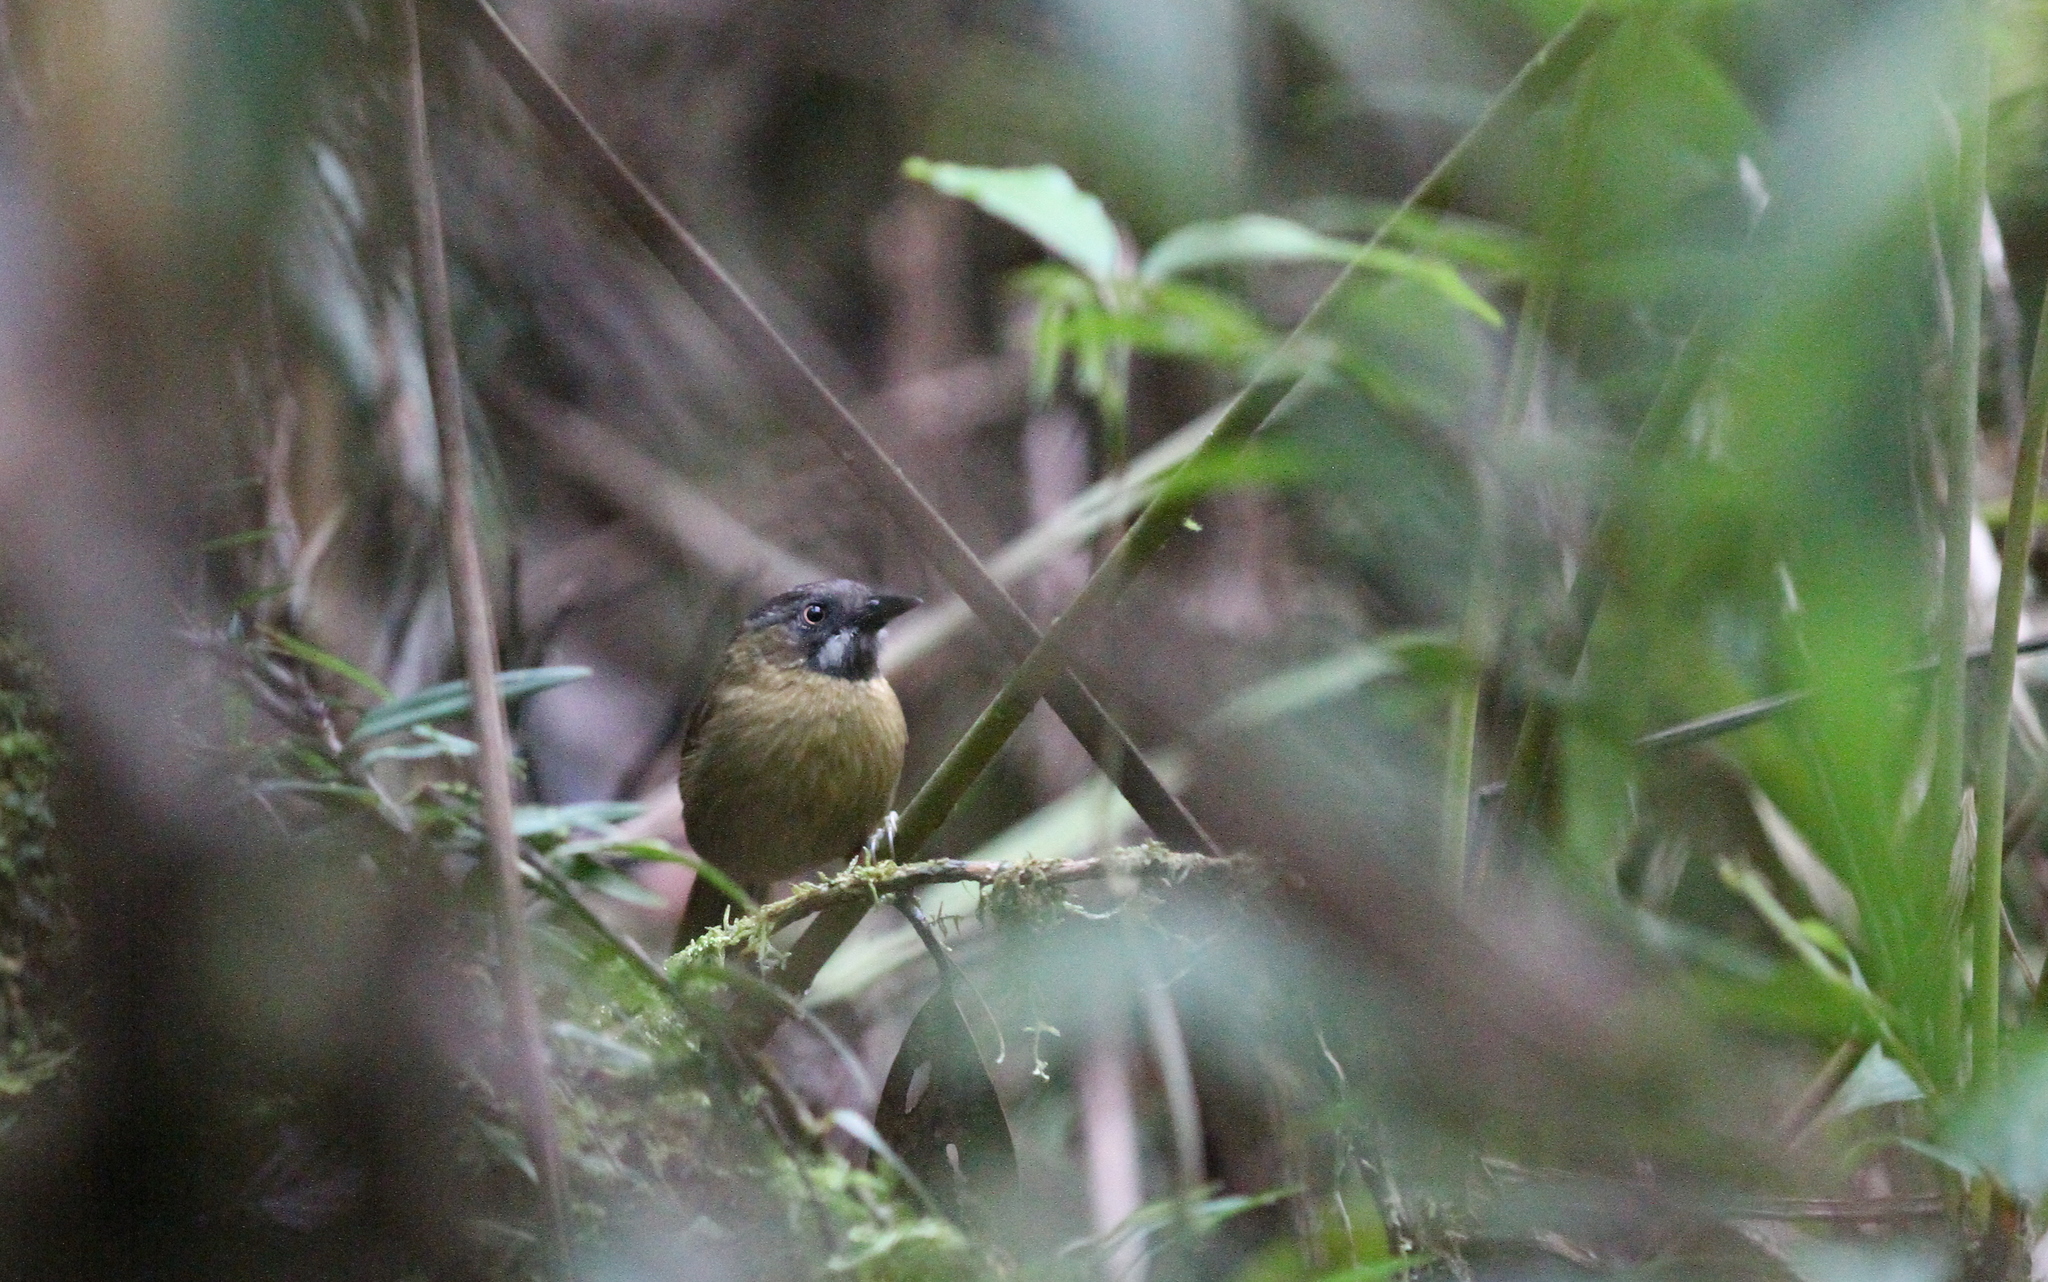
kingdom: Animalia
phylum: Chordata
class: Aves
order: Passeriformes
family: Timaliidae
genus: Stachyris
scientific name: Stachyris nigriceps
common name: Grey-throated babbler
